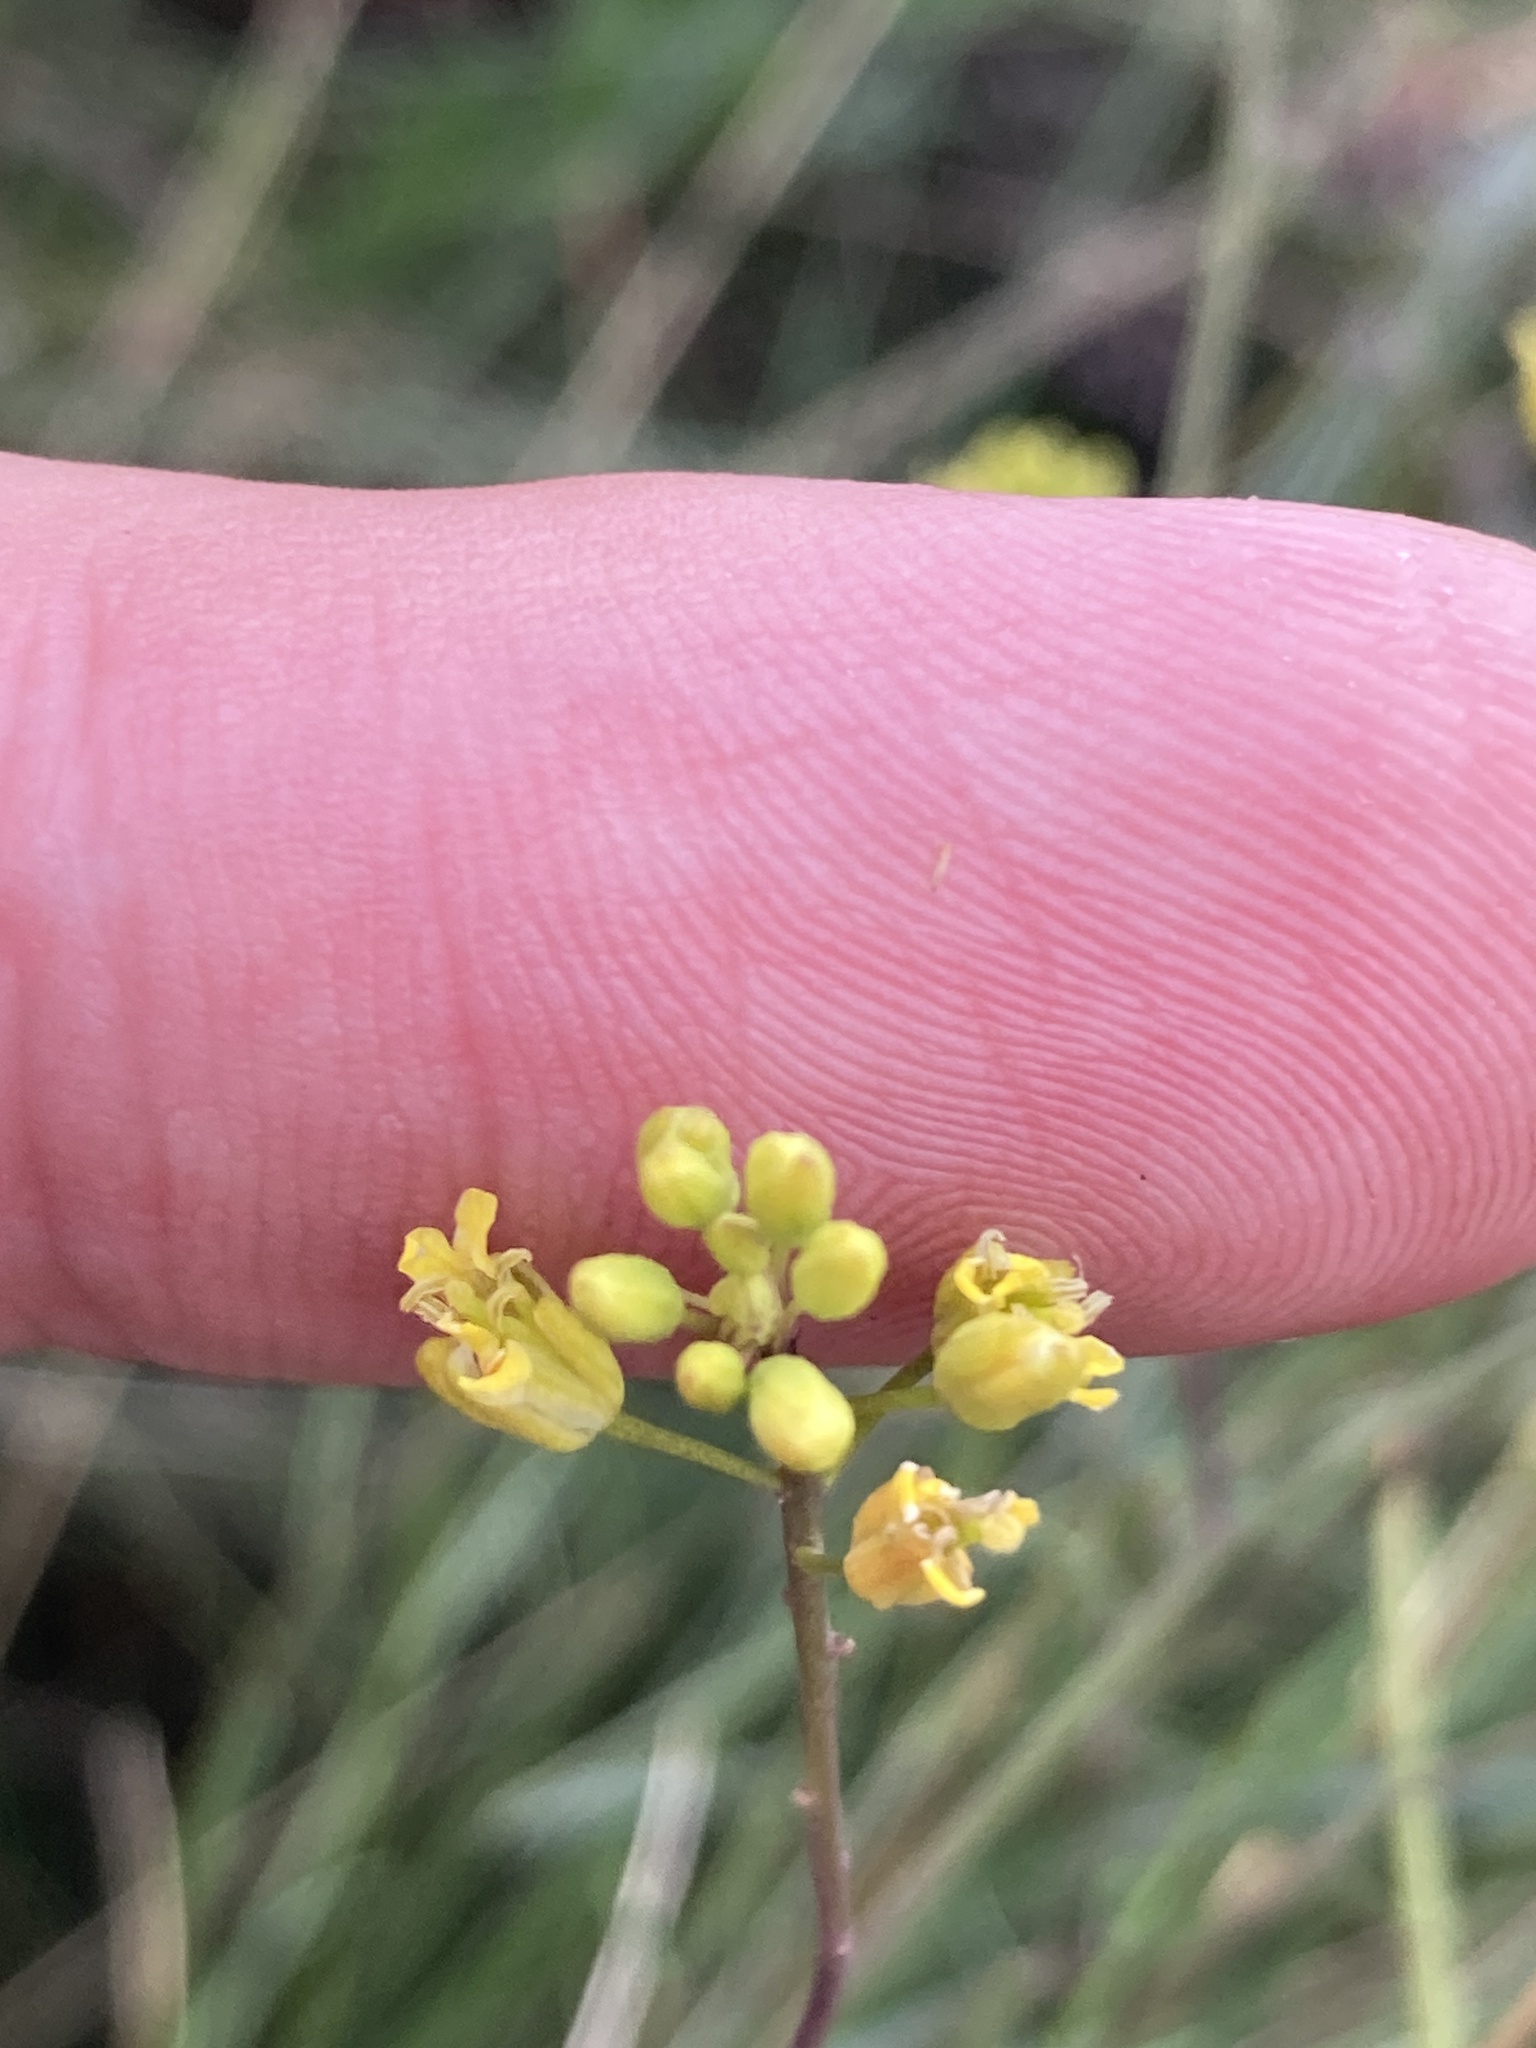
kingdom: Plantae
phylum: Tracheophyta
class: Magnoliopsida
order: Brassicales
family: Brassicaceae
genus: Sisymbrium
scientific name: Sisymbrium polymorphum
